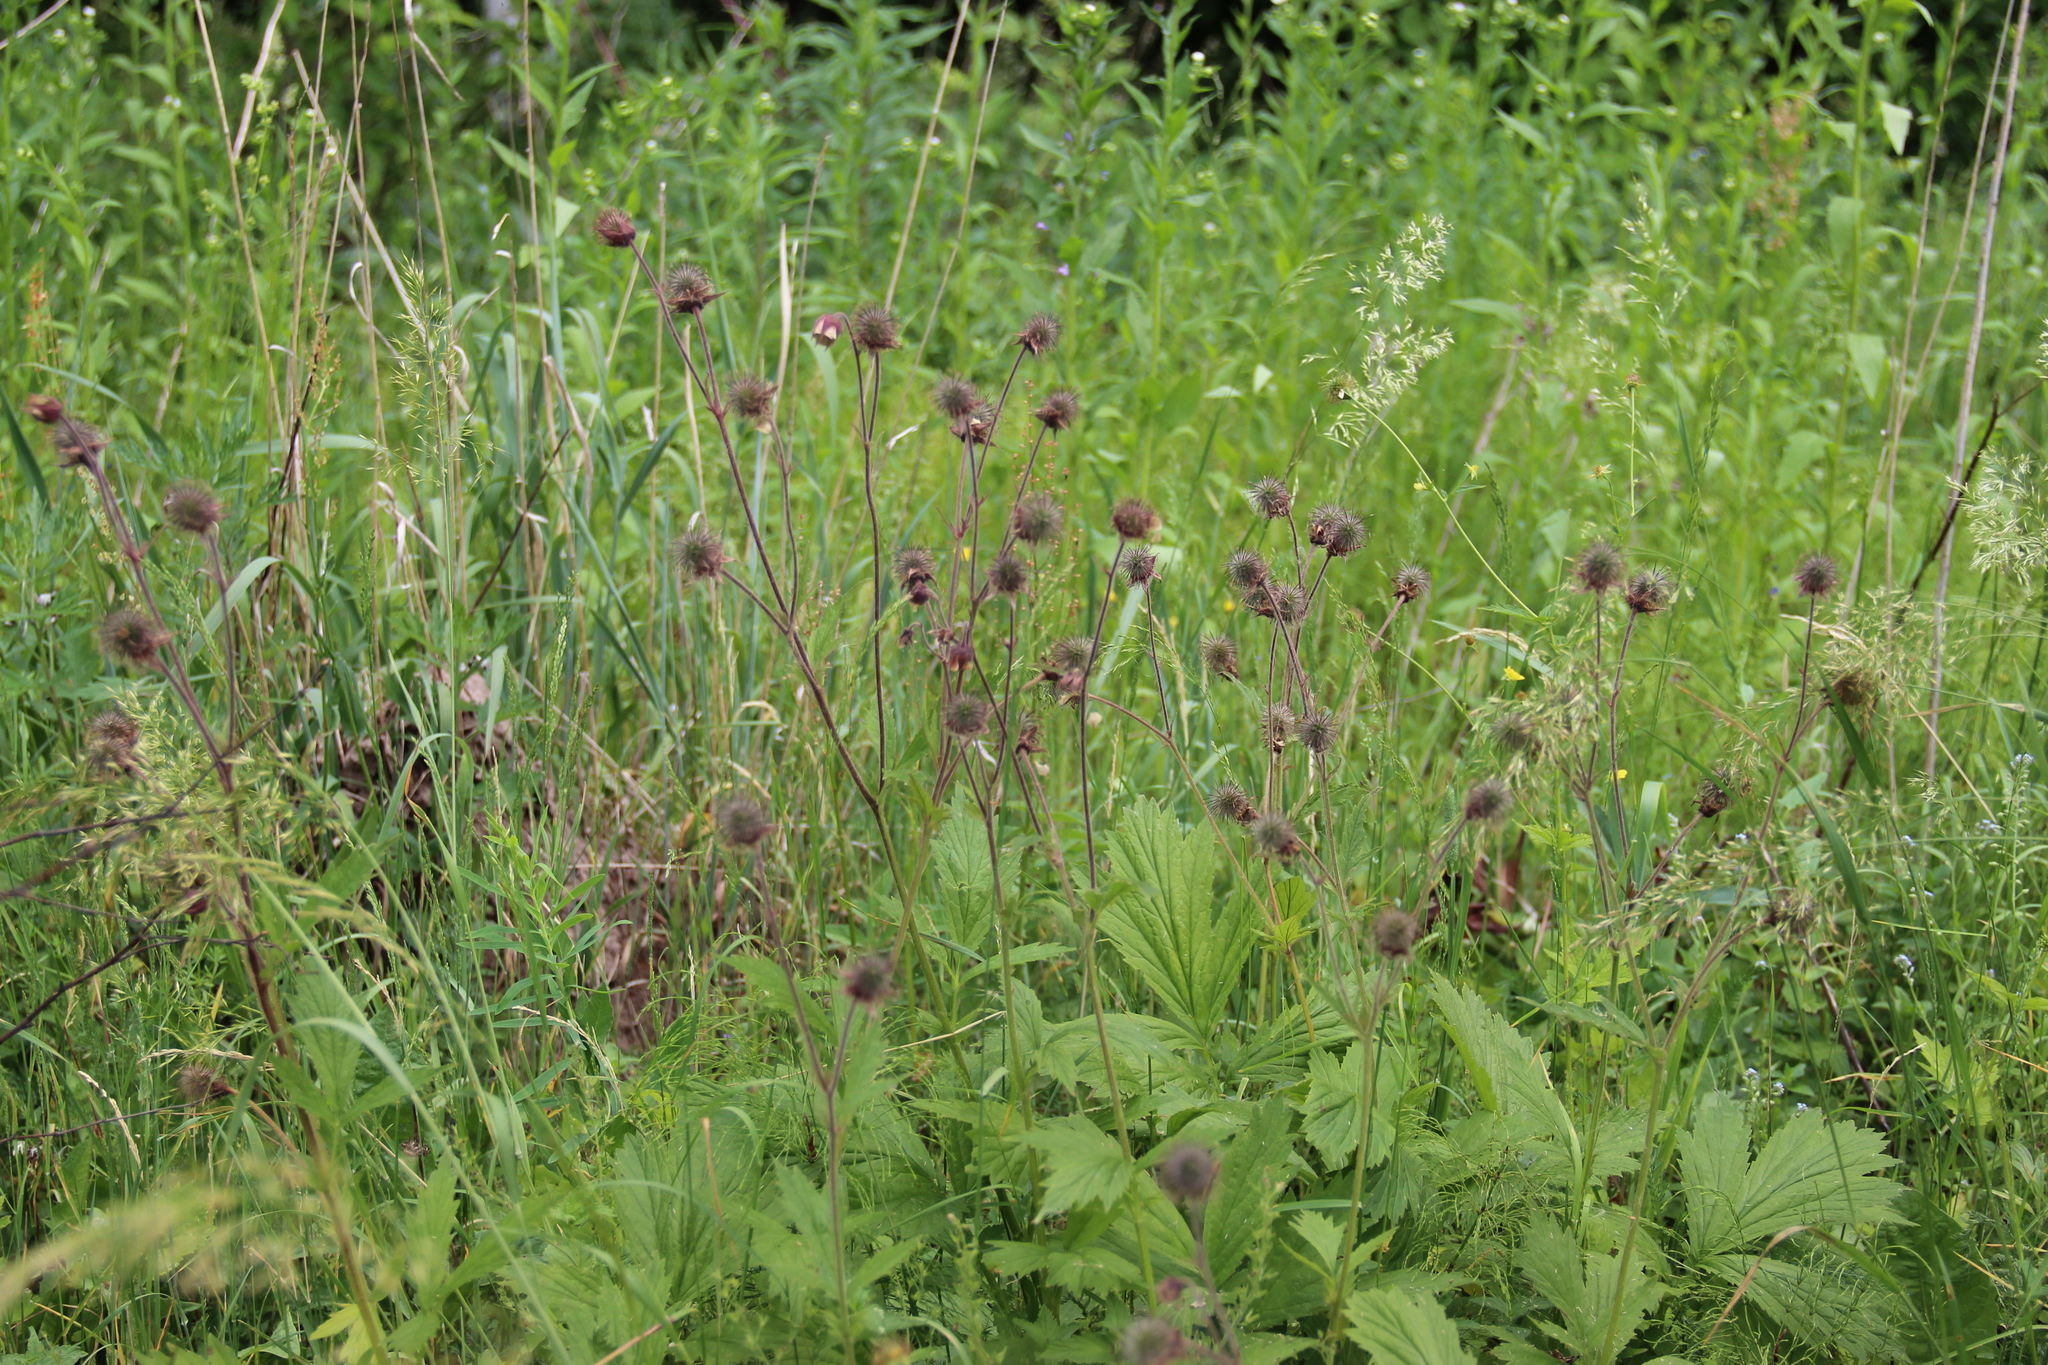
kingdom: Plantae
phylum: Tracheophyta
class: Magnoliopsida
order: Rosales
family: Rosaceae
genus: Geum
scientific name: Geum rivale
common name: Water avens
